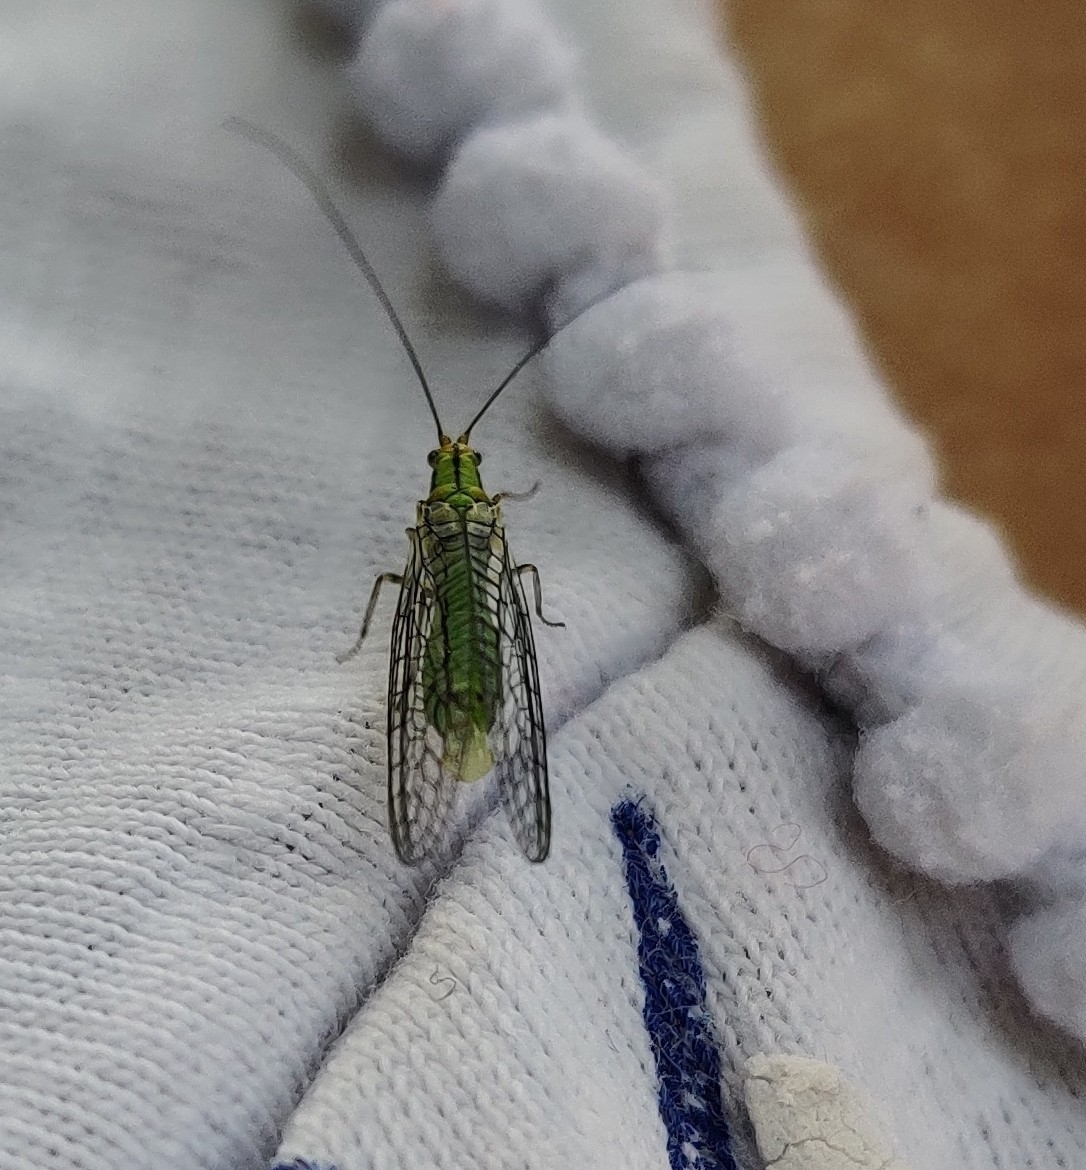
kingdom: Animalia
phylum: Arthropoda
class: Insecta
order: Neuroptera
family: Chrysopidae
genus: Hypochrysa
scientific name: Hypochrysa elegans
